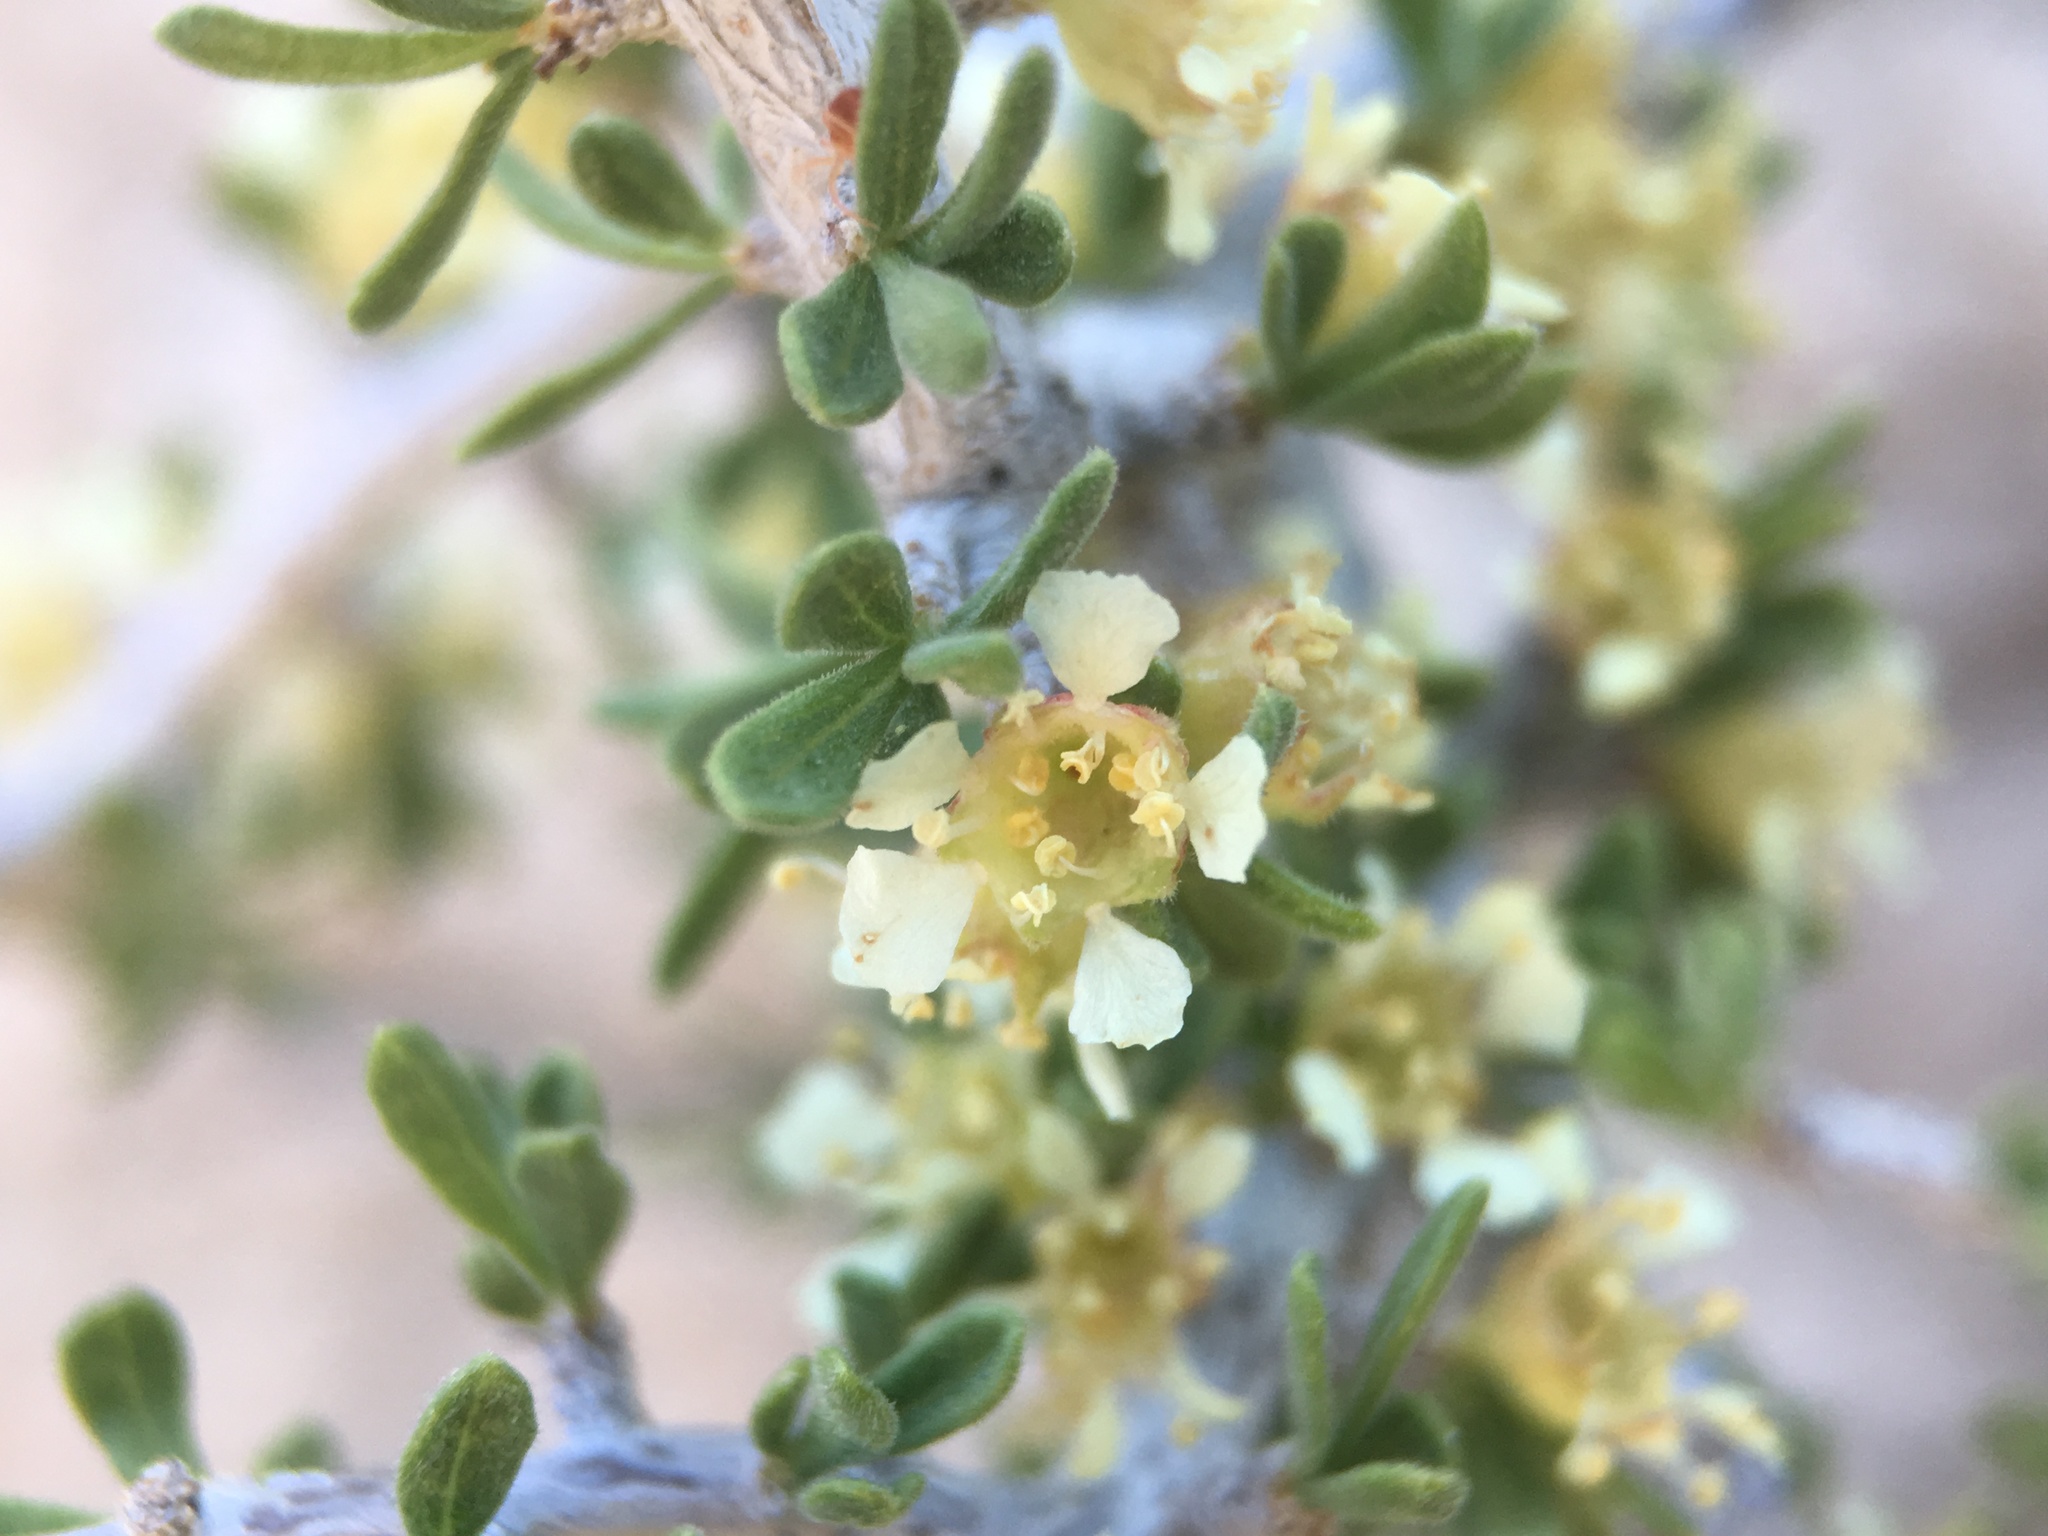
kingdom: Plantae
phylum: Tracheophyta
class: Magnoliopsida
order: Rosales
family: Rosaceae
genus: Prunus
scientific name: Prunus fasciculata
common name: Desert almond
